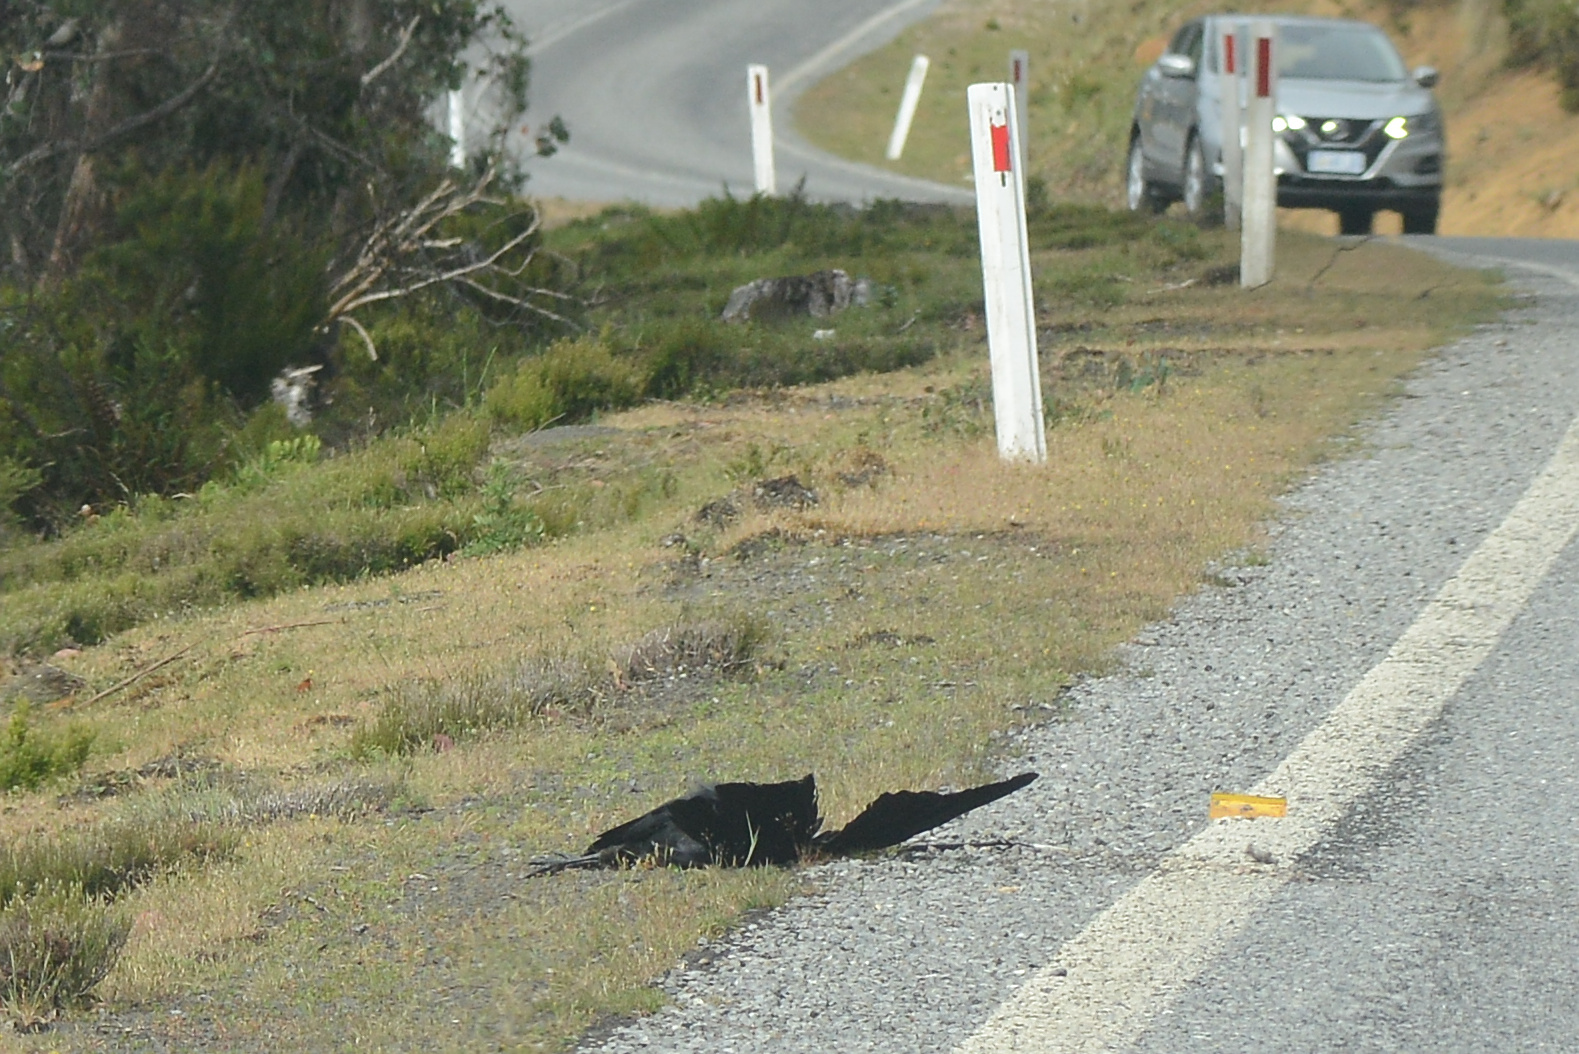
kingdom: Animalia
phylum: Chordata
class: Aves
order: Passeriformes
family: Corvidae
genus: Corvus
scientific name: Corvus tasmanicus
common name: Forest raven
